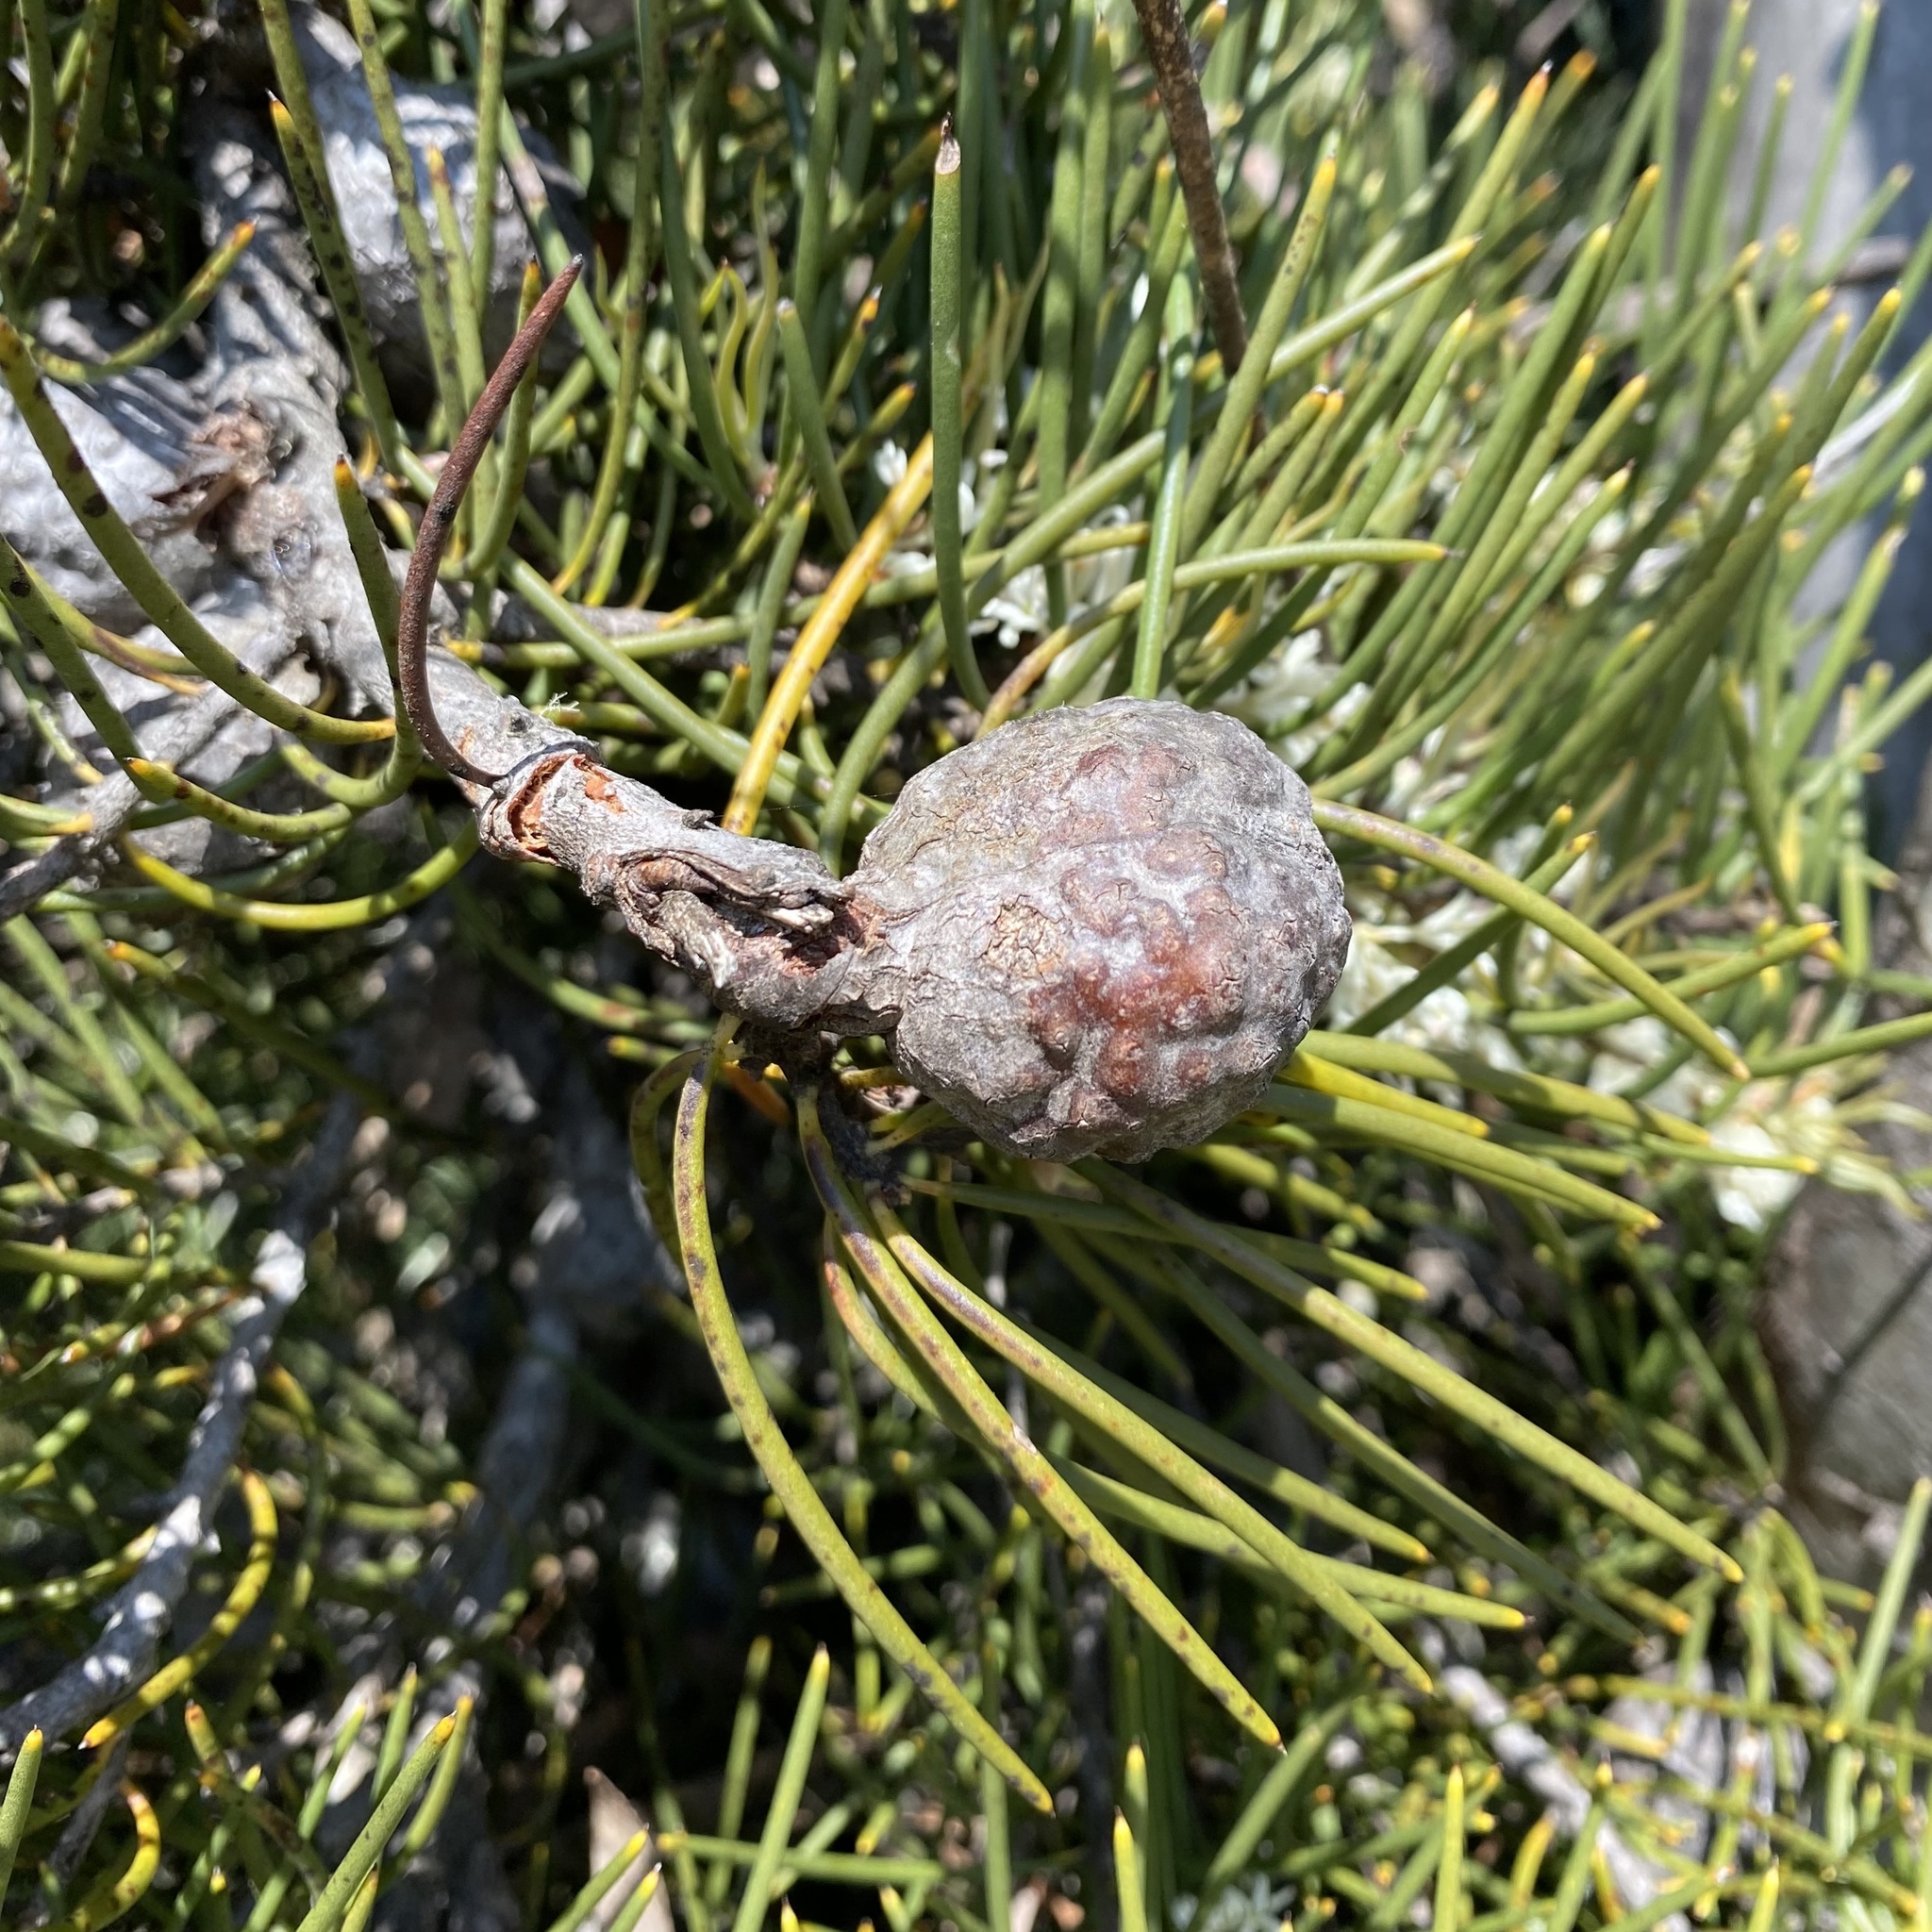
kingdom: Plantae
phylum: Tracheophyta
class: Magnoliopsida
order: Proteales
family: Proteaceae
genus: Hakea
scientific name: Hakea lissosperma
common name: Mountain needlewood
